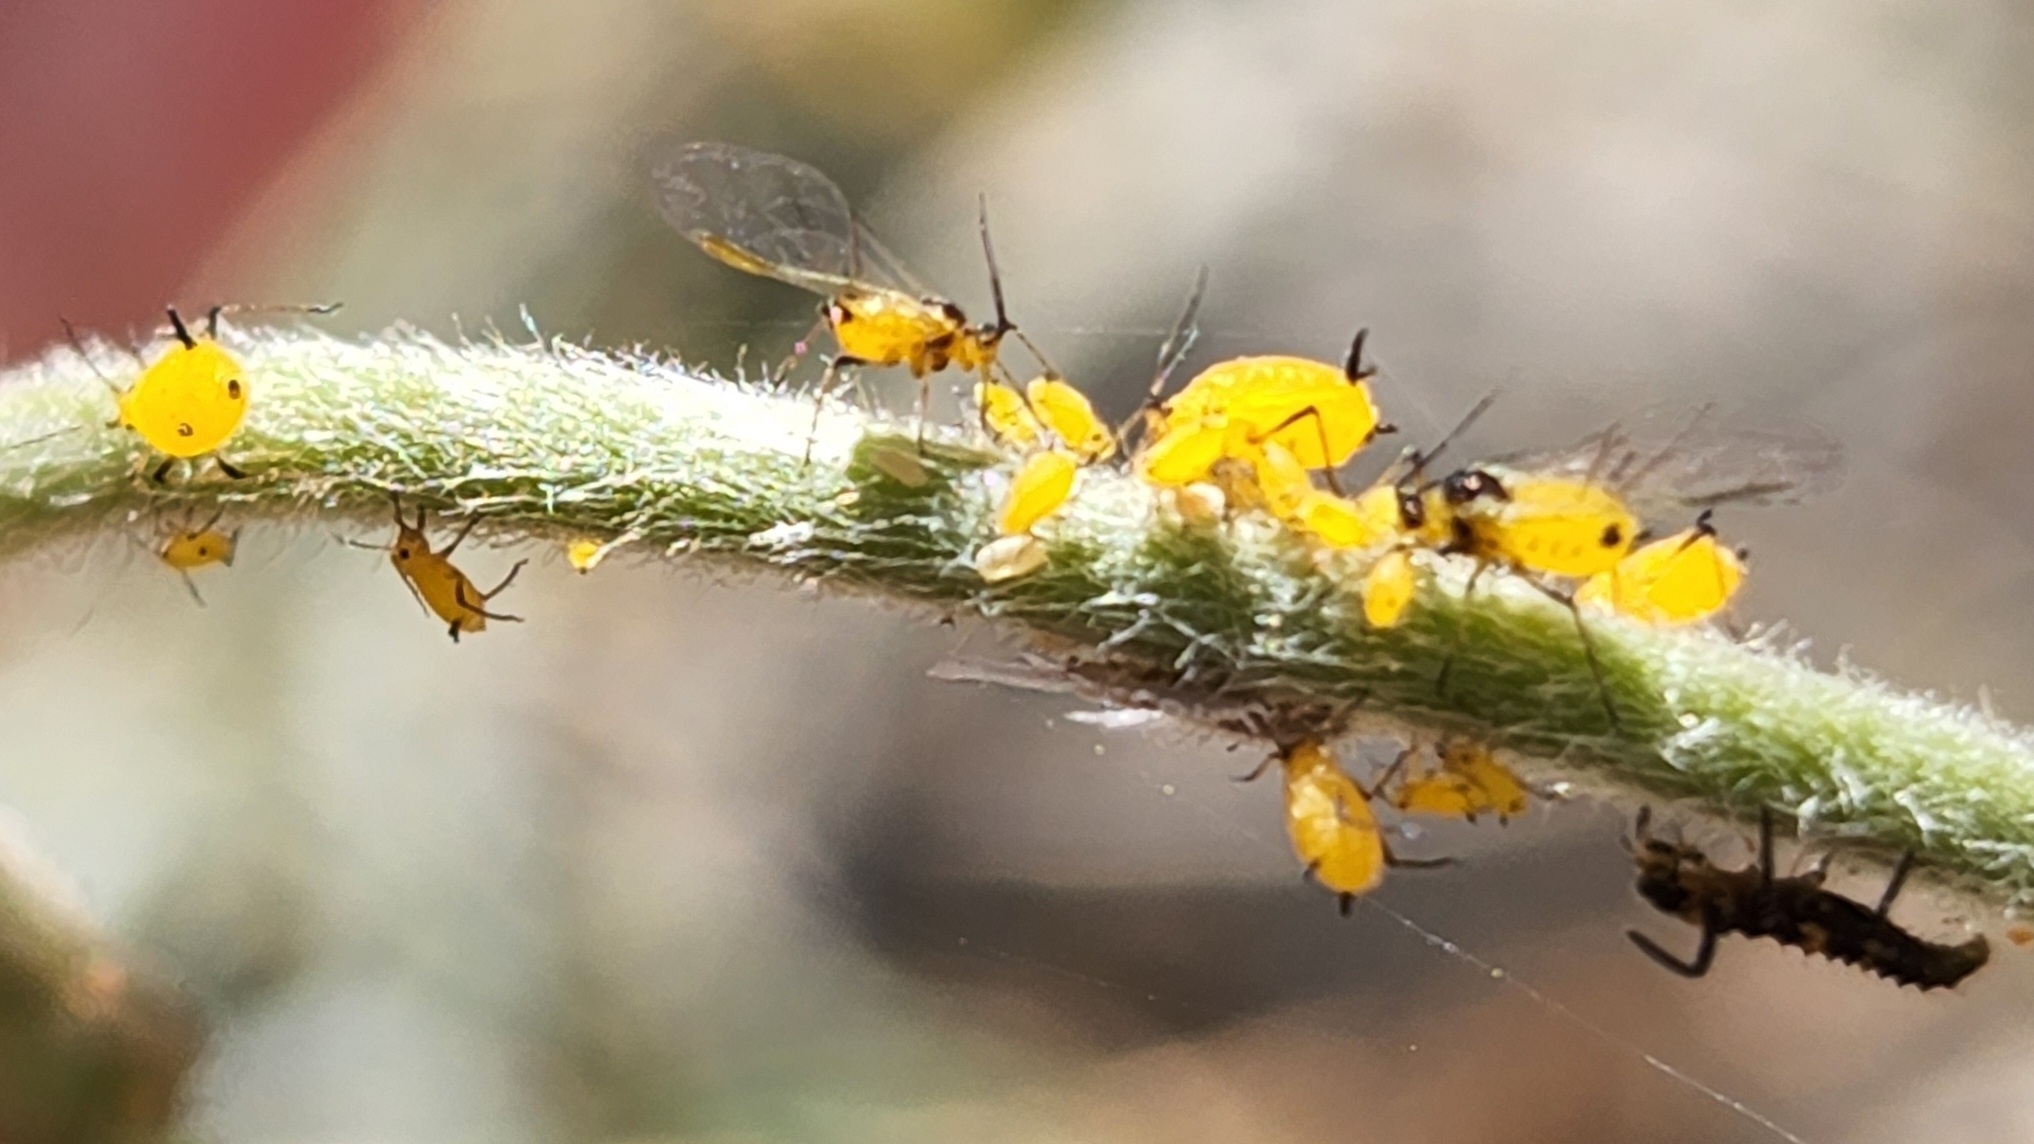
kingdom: Animalia
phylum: Arthropoda
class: Insecta
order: Hemiptera
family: Aphididae
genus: Aphis
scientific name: Aphis nerii
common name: Oleander aphid
